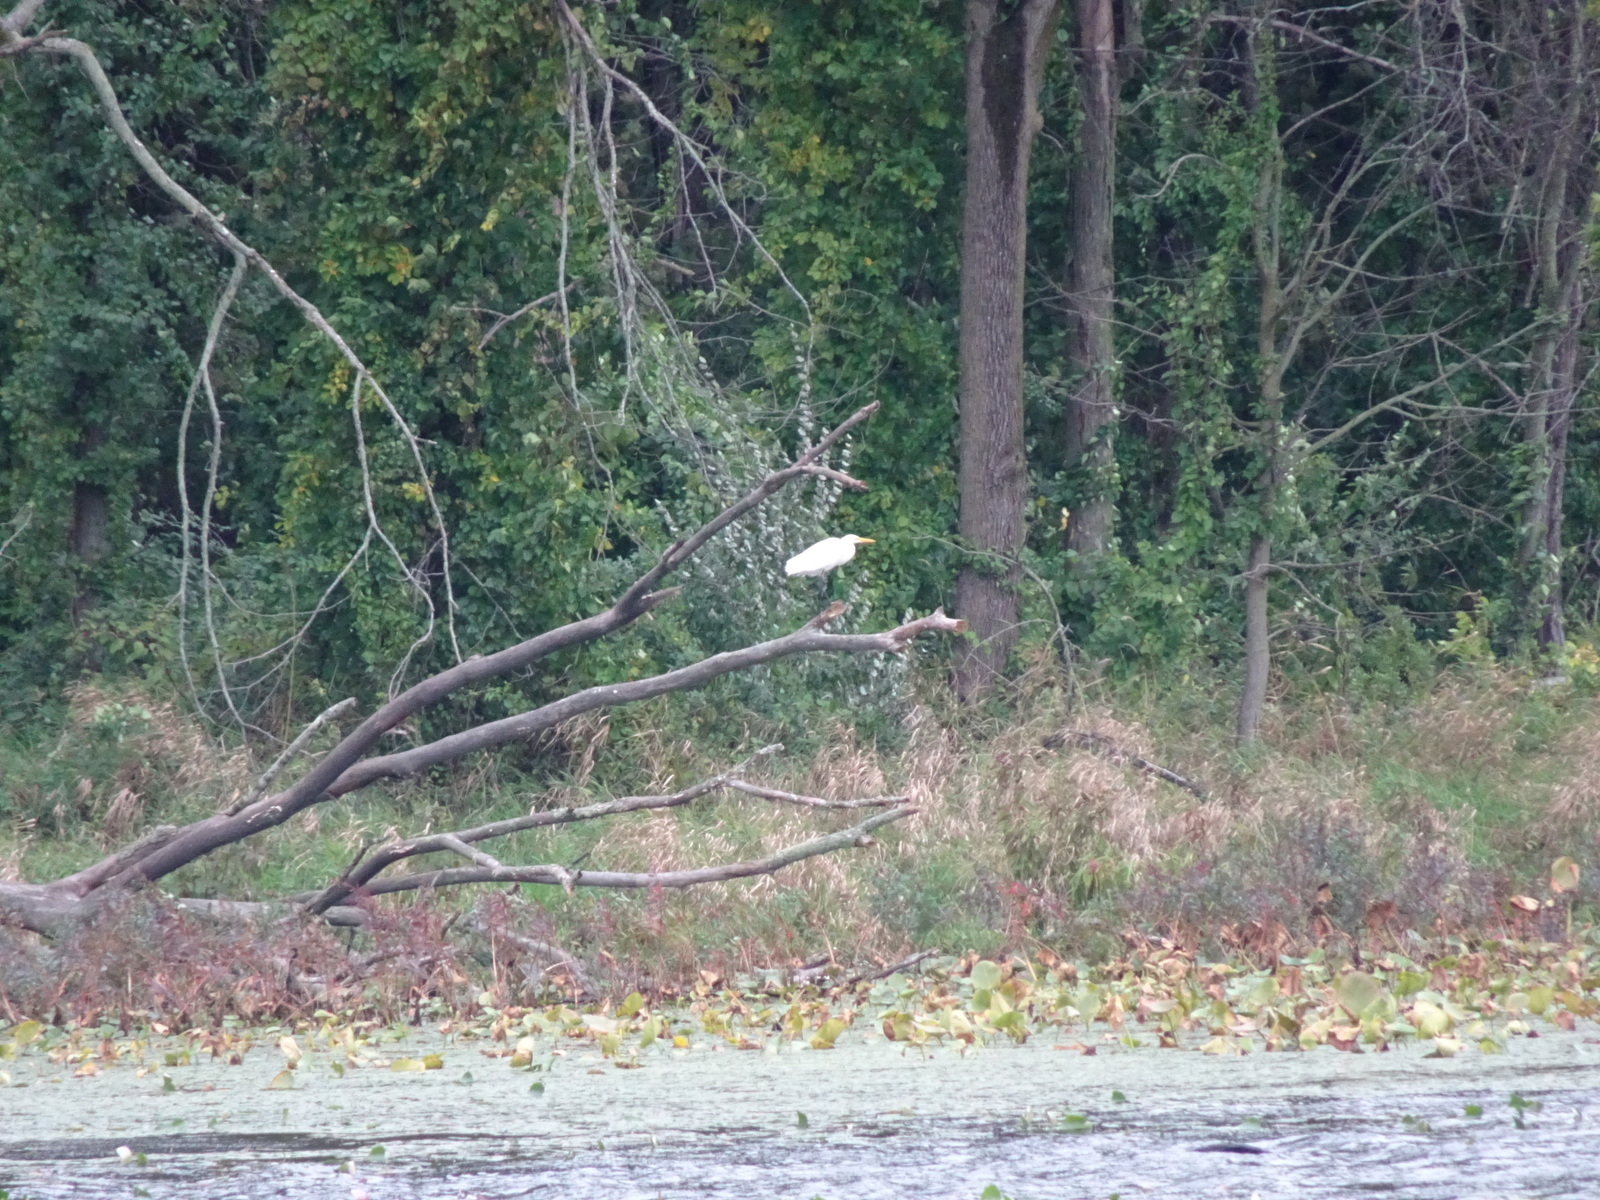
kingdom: Animalia
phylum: Chordata
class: Aves
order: Pelecaniformes
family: Ardeidae
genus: Ardea
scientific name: Ardea alba
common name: Great egret
